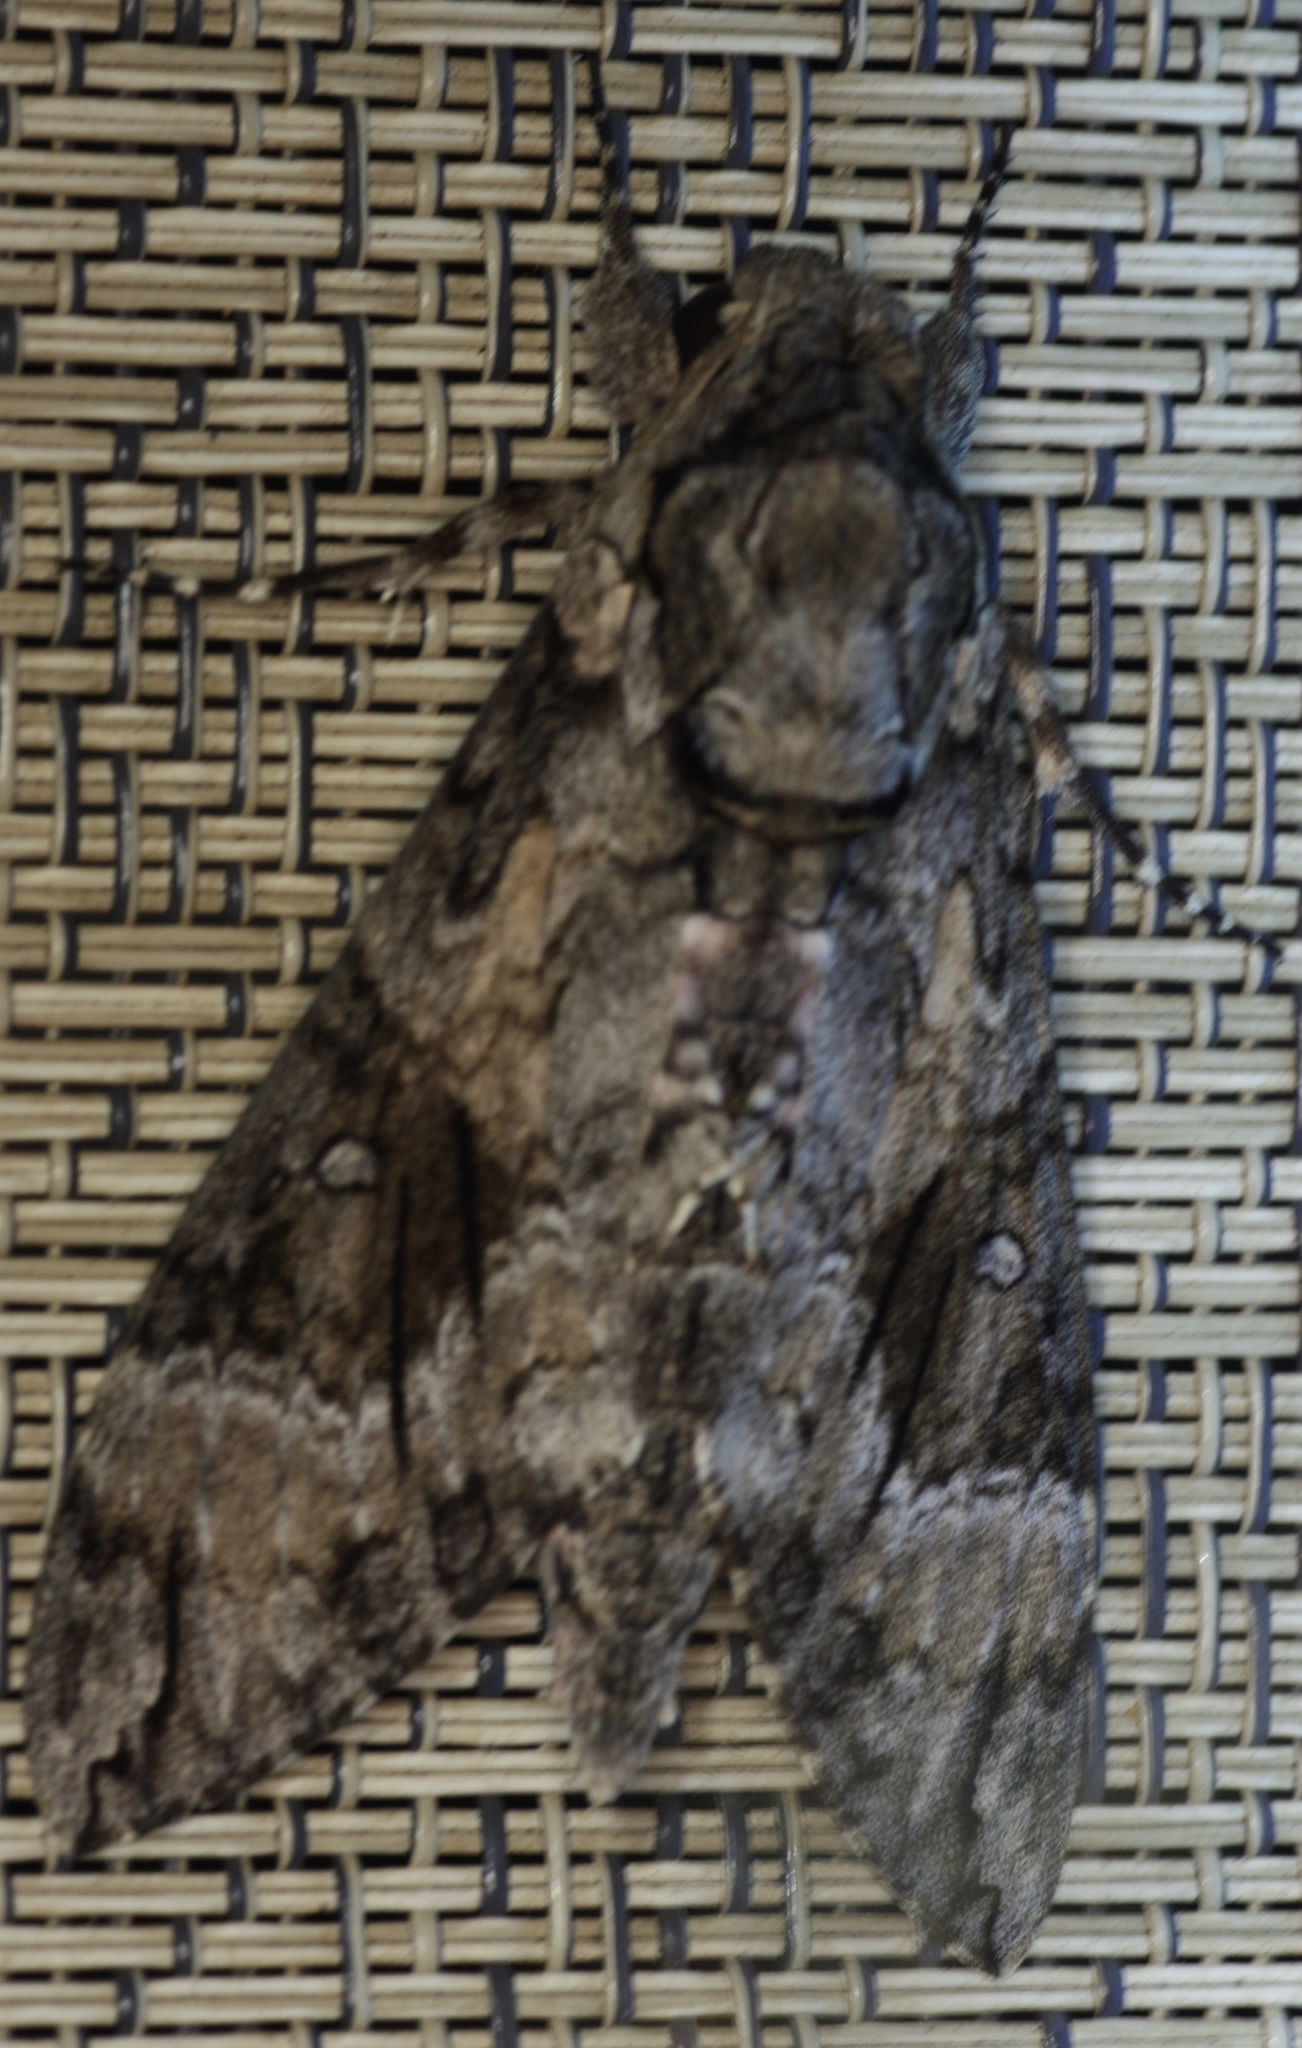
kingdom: Animalia
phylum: Arthropoda
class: Insecta
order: Lepidoptera
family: Sphingidae
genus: Agrius
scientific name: Agrius cingulata
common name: Pink-spotted hawkmoth
